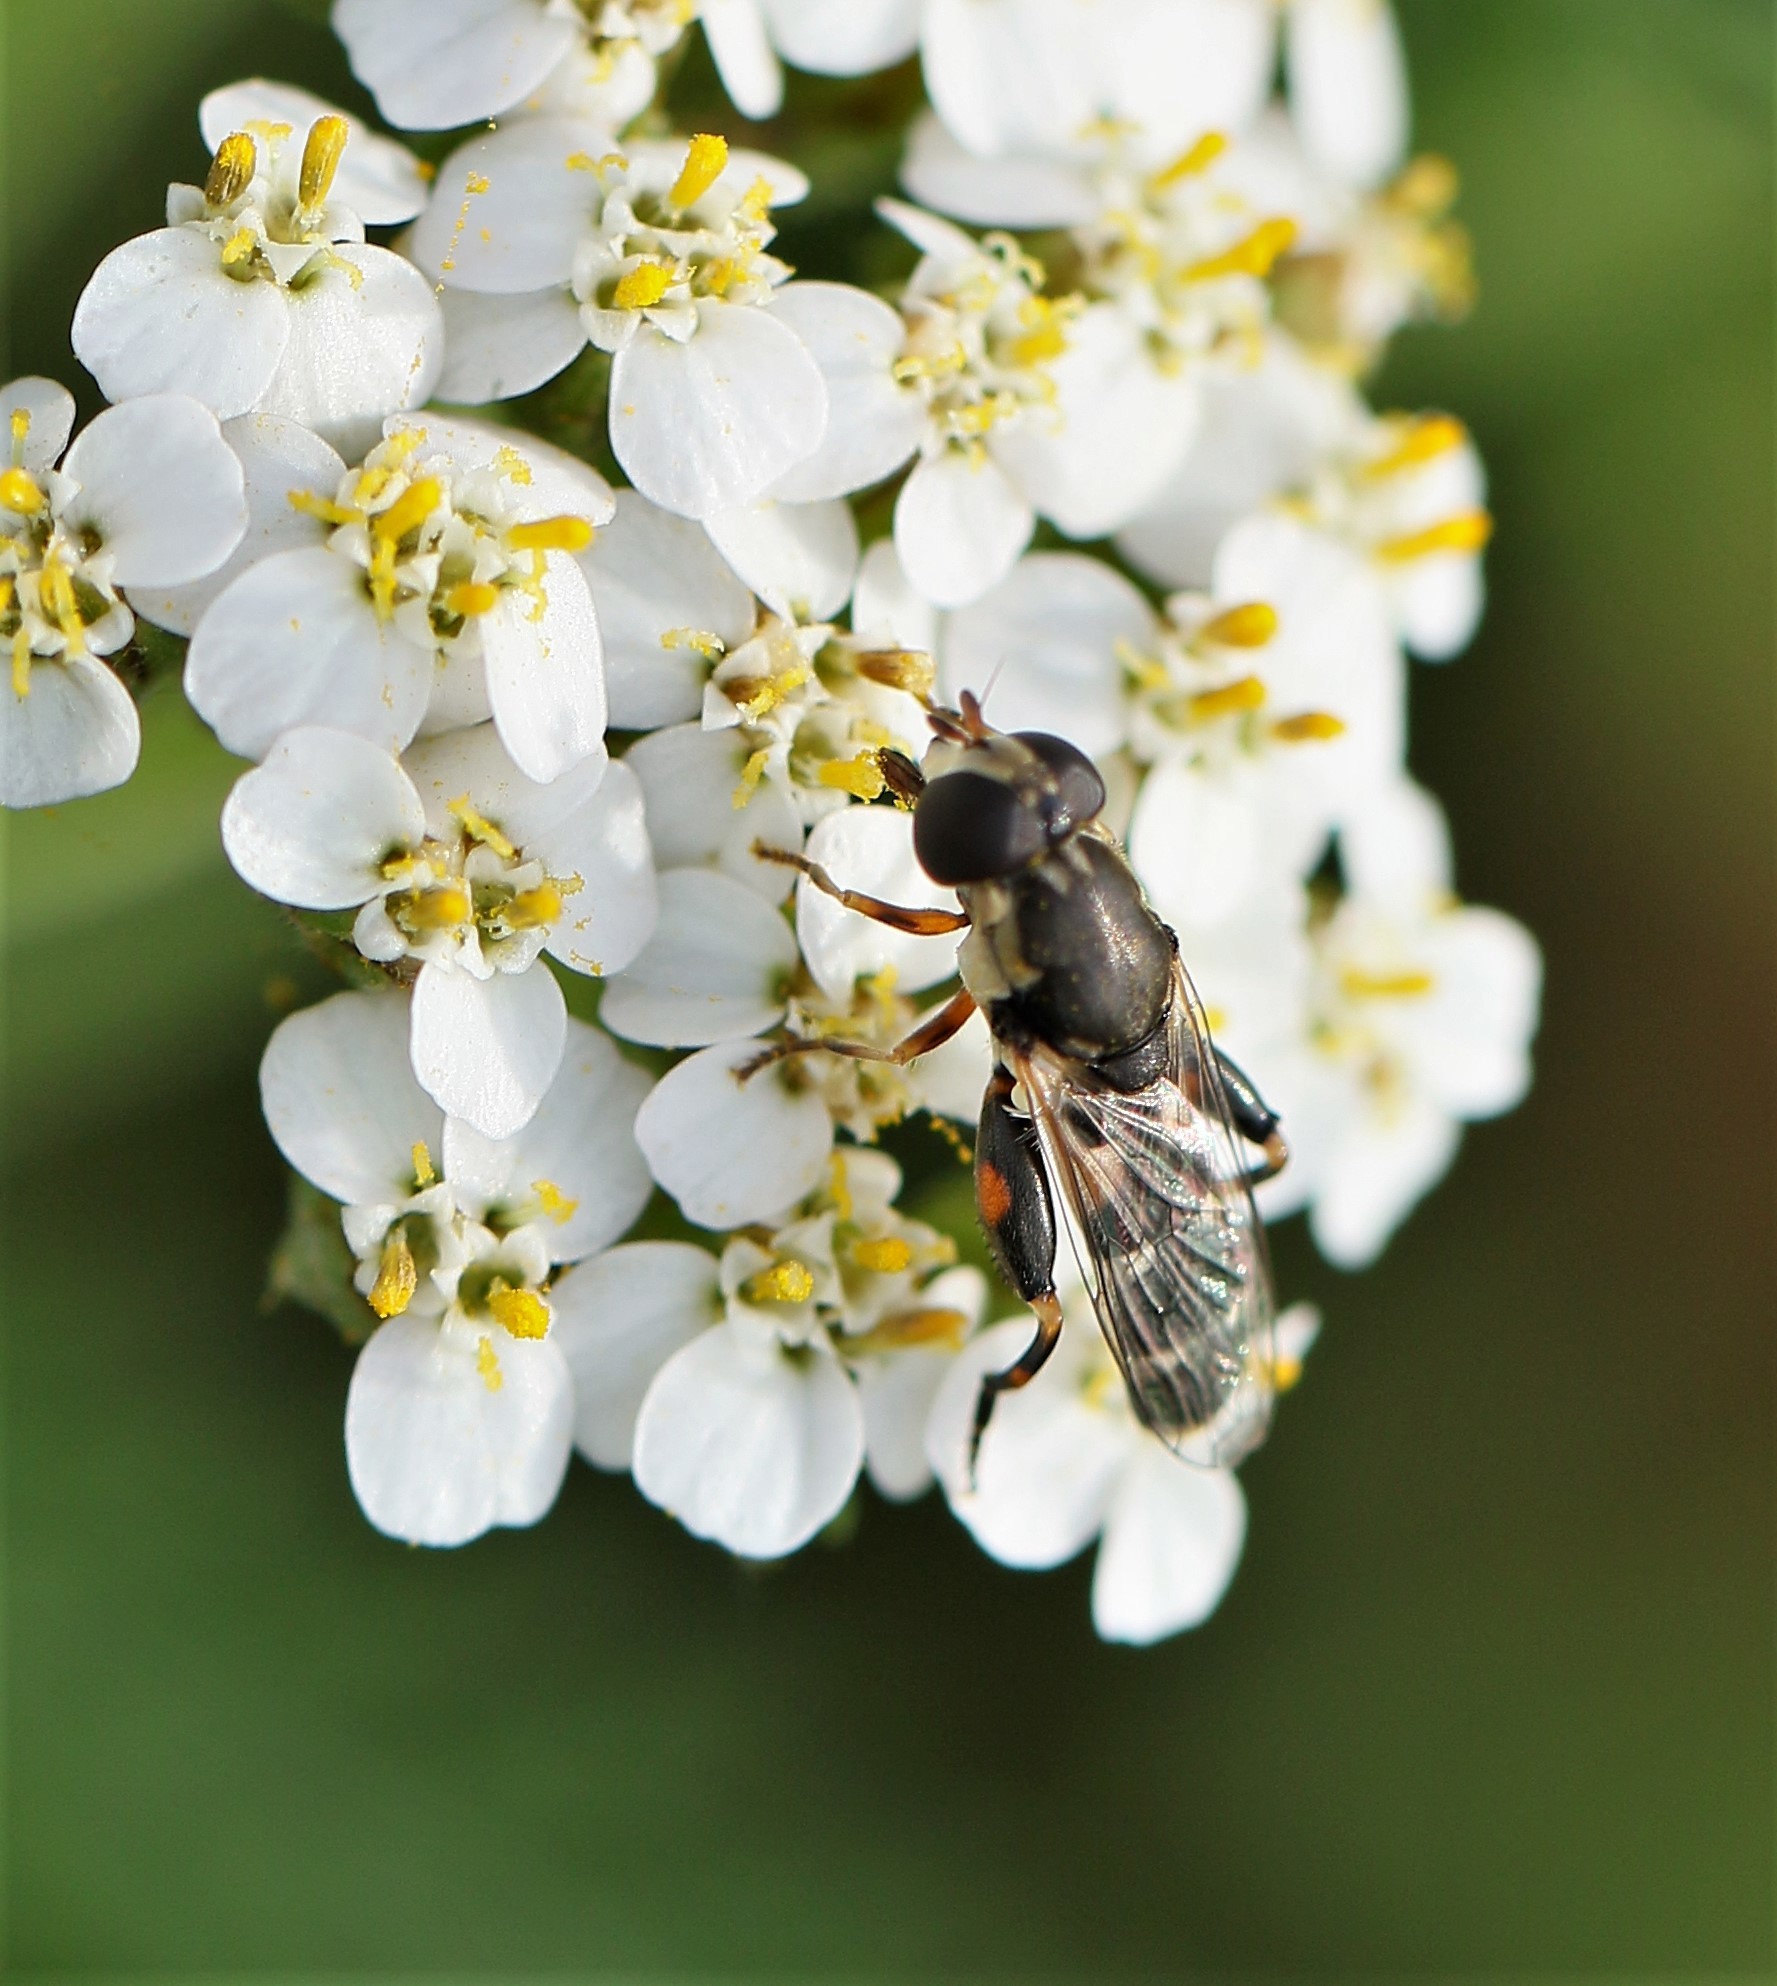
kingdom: Animalia
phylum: Arthropoda
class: Insecta
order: Diptera
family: Syrphidae
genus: Syritta
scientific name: Syritta pipiens
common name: Hover fly
